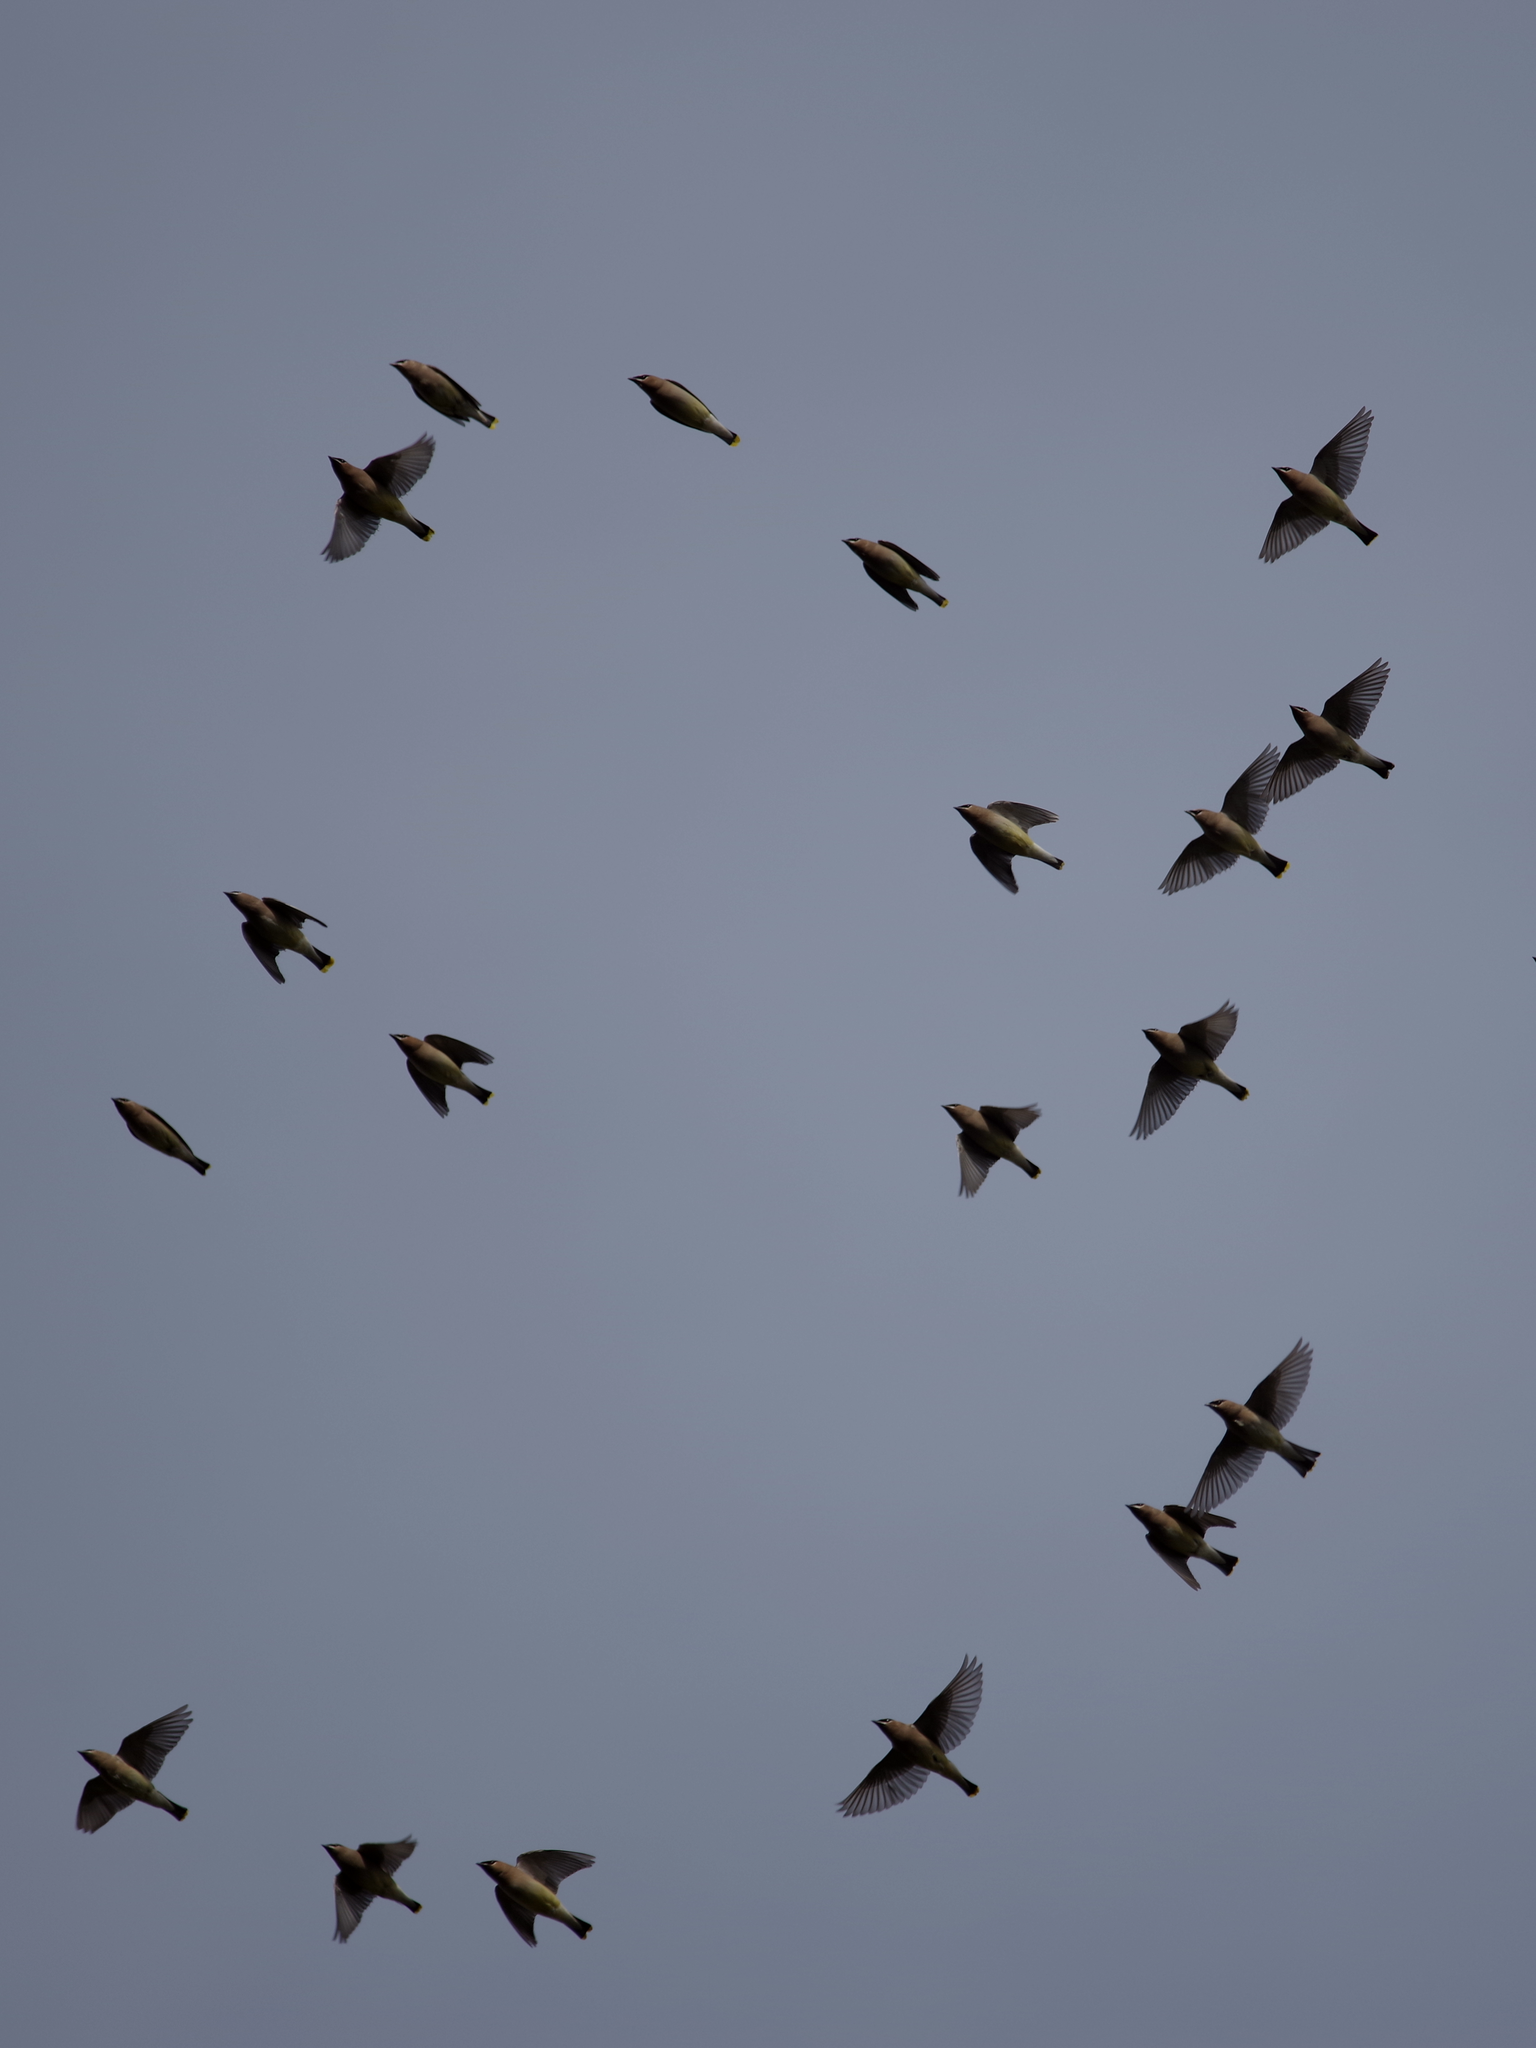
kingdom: Animalia
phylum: Chordata
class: Aves
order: Passeriformes
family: Bombycillidae
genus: Bombycilla
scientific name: Bombycilla cedrorum
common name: Cedar waxwing
